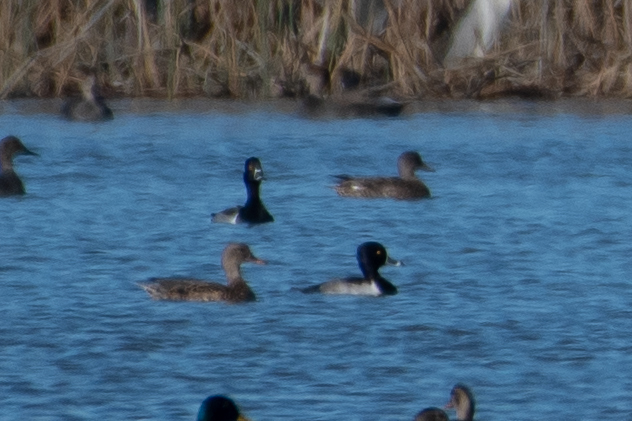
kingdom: Animalia
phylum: Chordata
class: Aves
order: Anseriformes
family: Anatidae
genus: Aythya
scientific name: Aythya collaris
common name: Ring-necked duck
